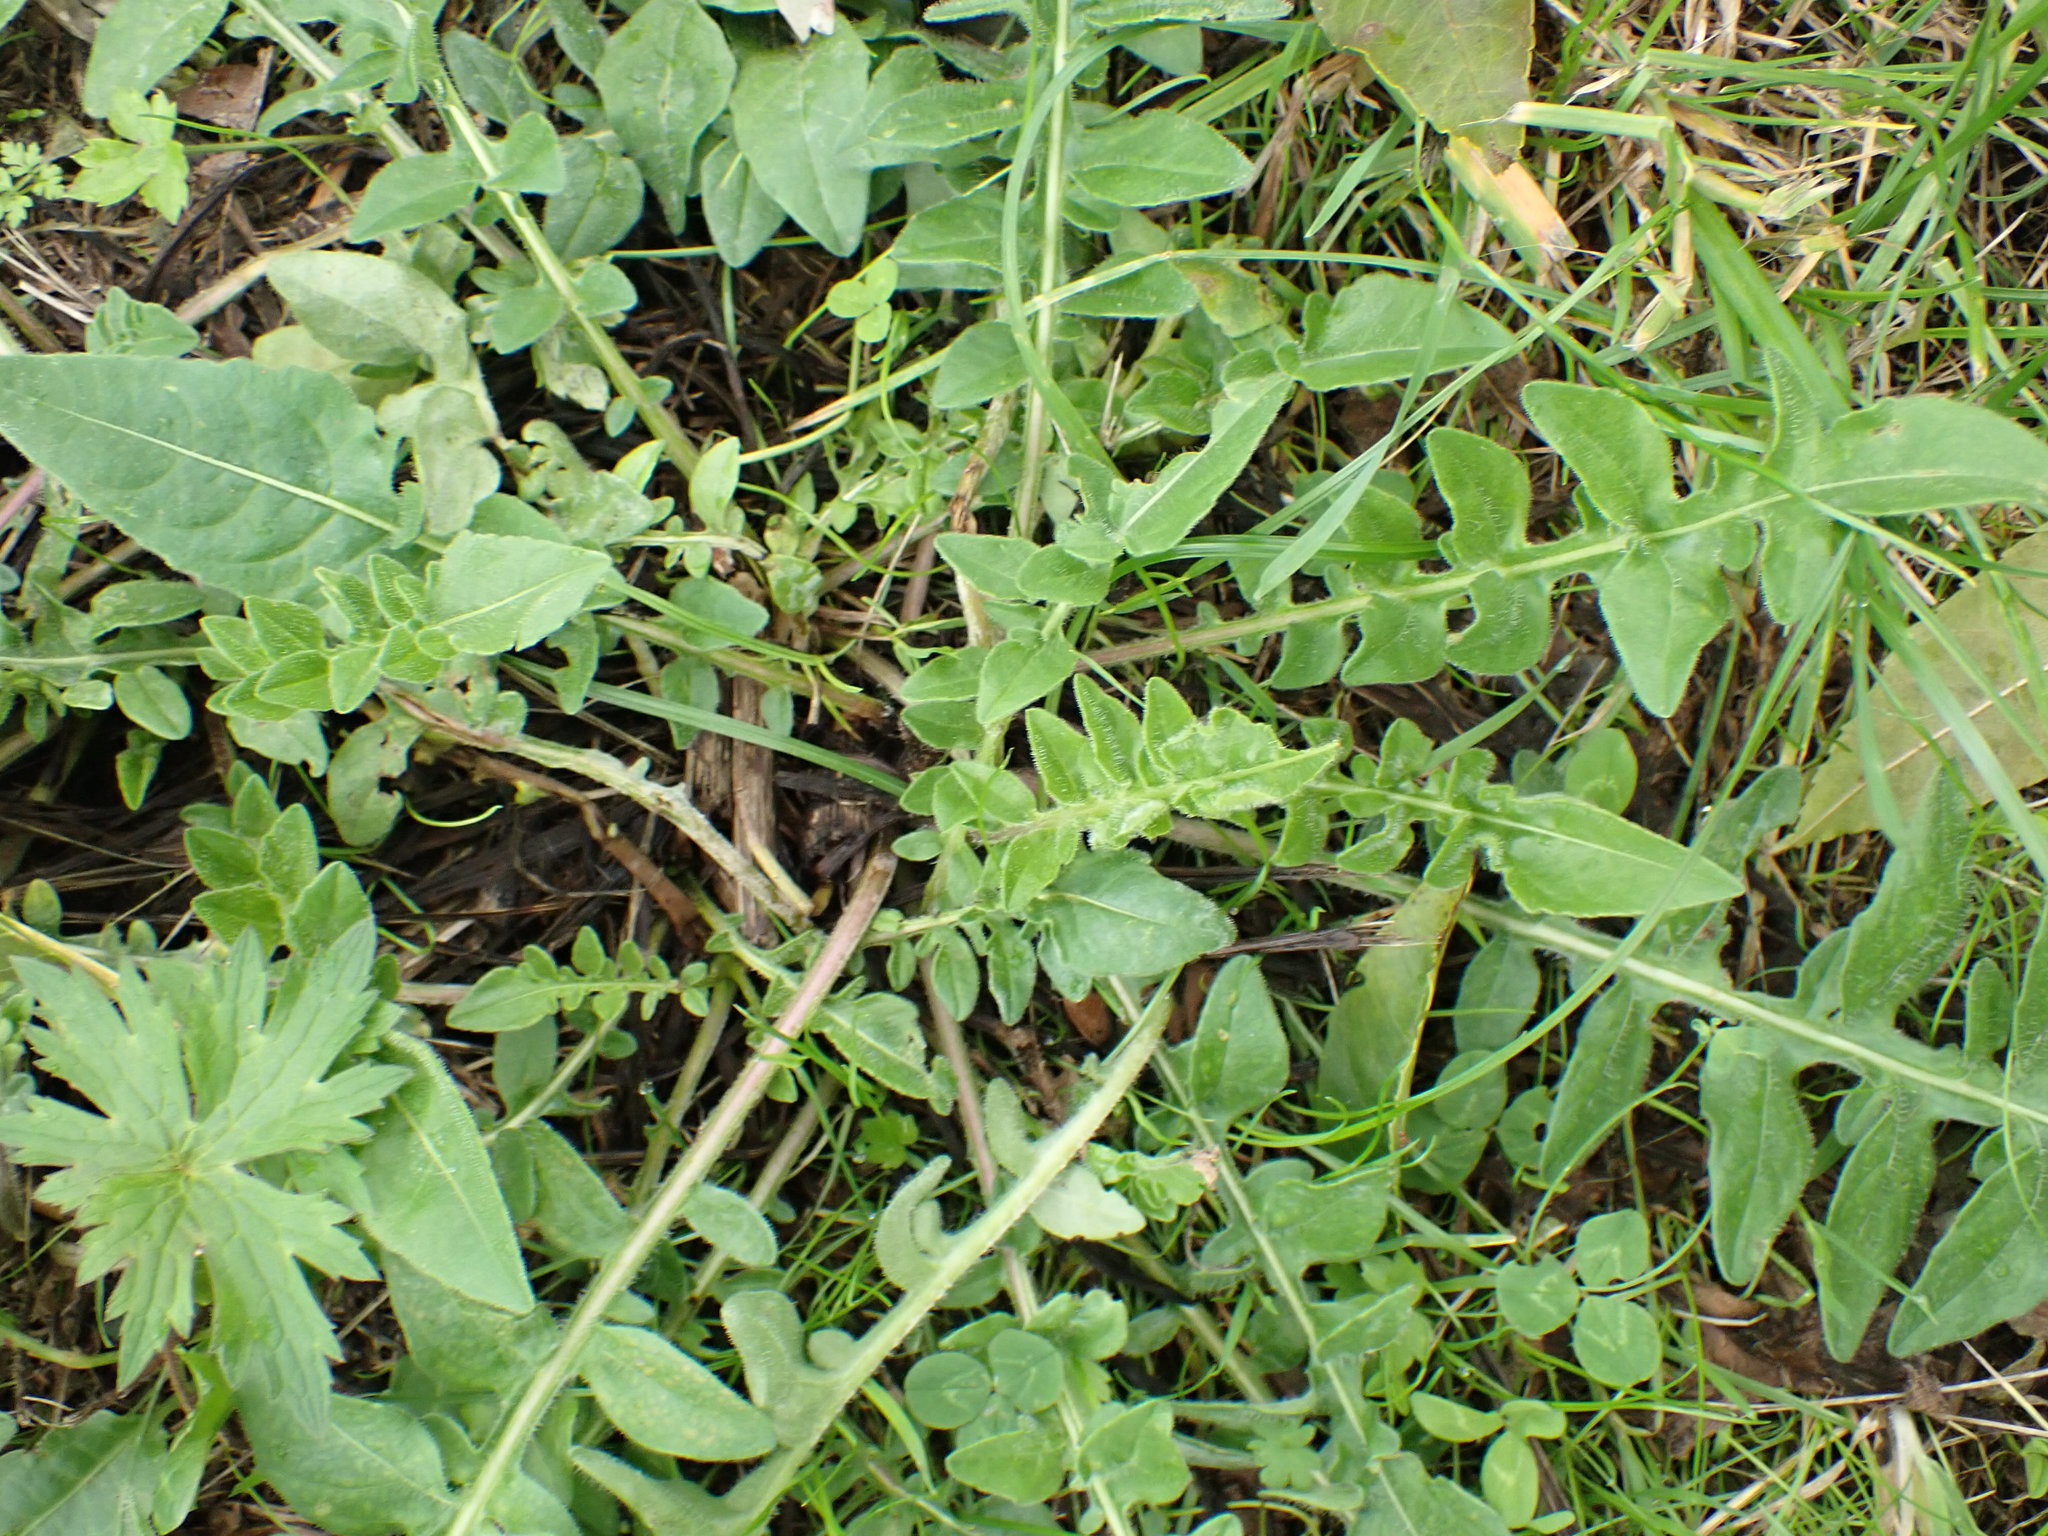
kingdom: Plantae
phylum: Tracheophyta
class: Magnoliopsida
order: Asterales
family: Asteraceae
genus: Centaurea
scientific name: Centaurea scabiosa
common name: Greater knapweed
